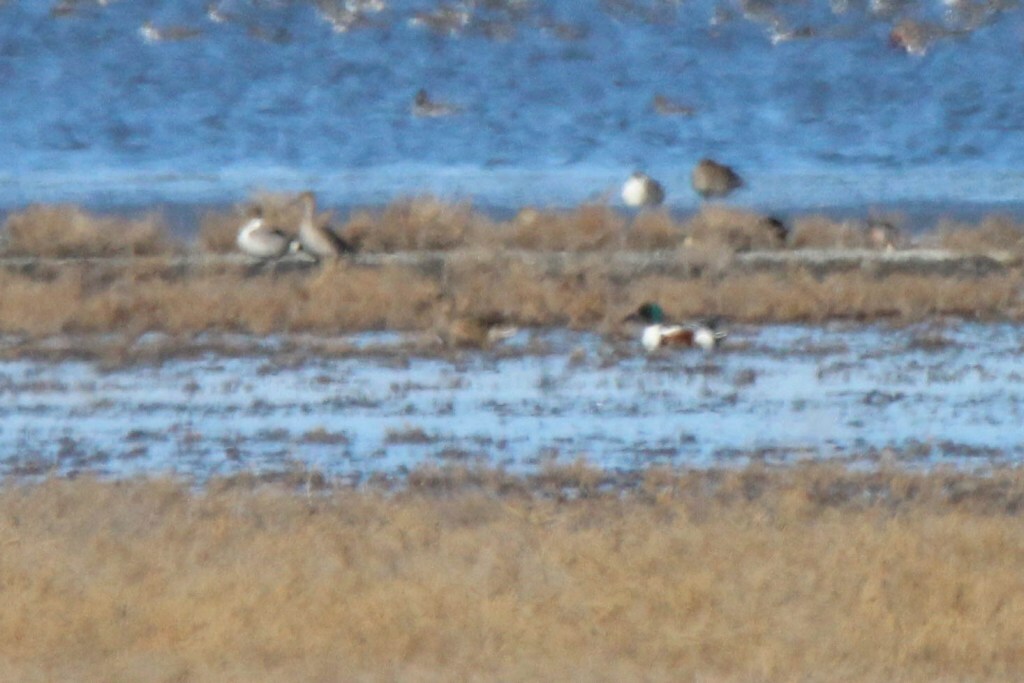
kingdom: Animalia
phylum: Chordata
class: Aves
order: Anseriformes
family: Anatidae
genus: Spatula
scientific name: Spatula clypeata
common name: Northern shoveler
